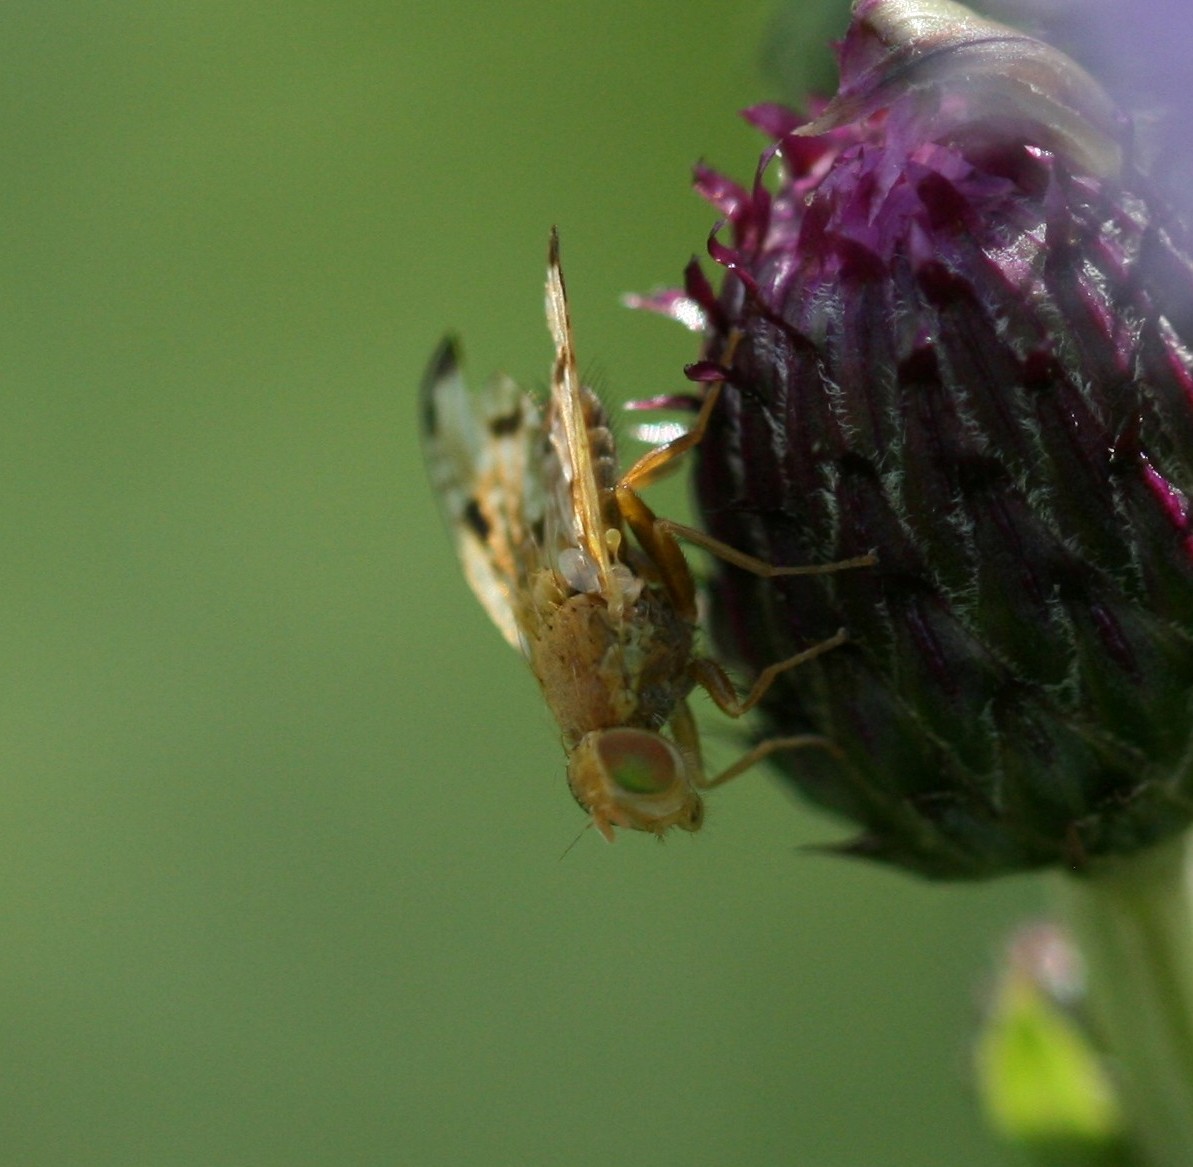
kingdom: Animalia
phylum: Arthropoda
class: Insecta
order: Diptera
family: Tephritidae
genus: Xyphosia
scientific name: Xyphosia miliaria
